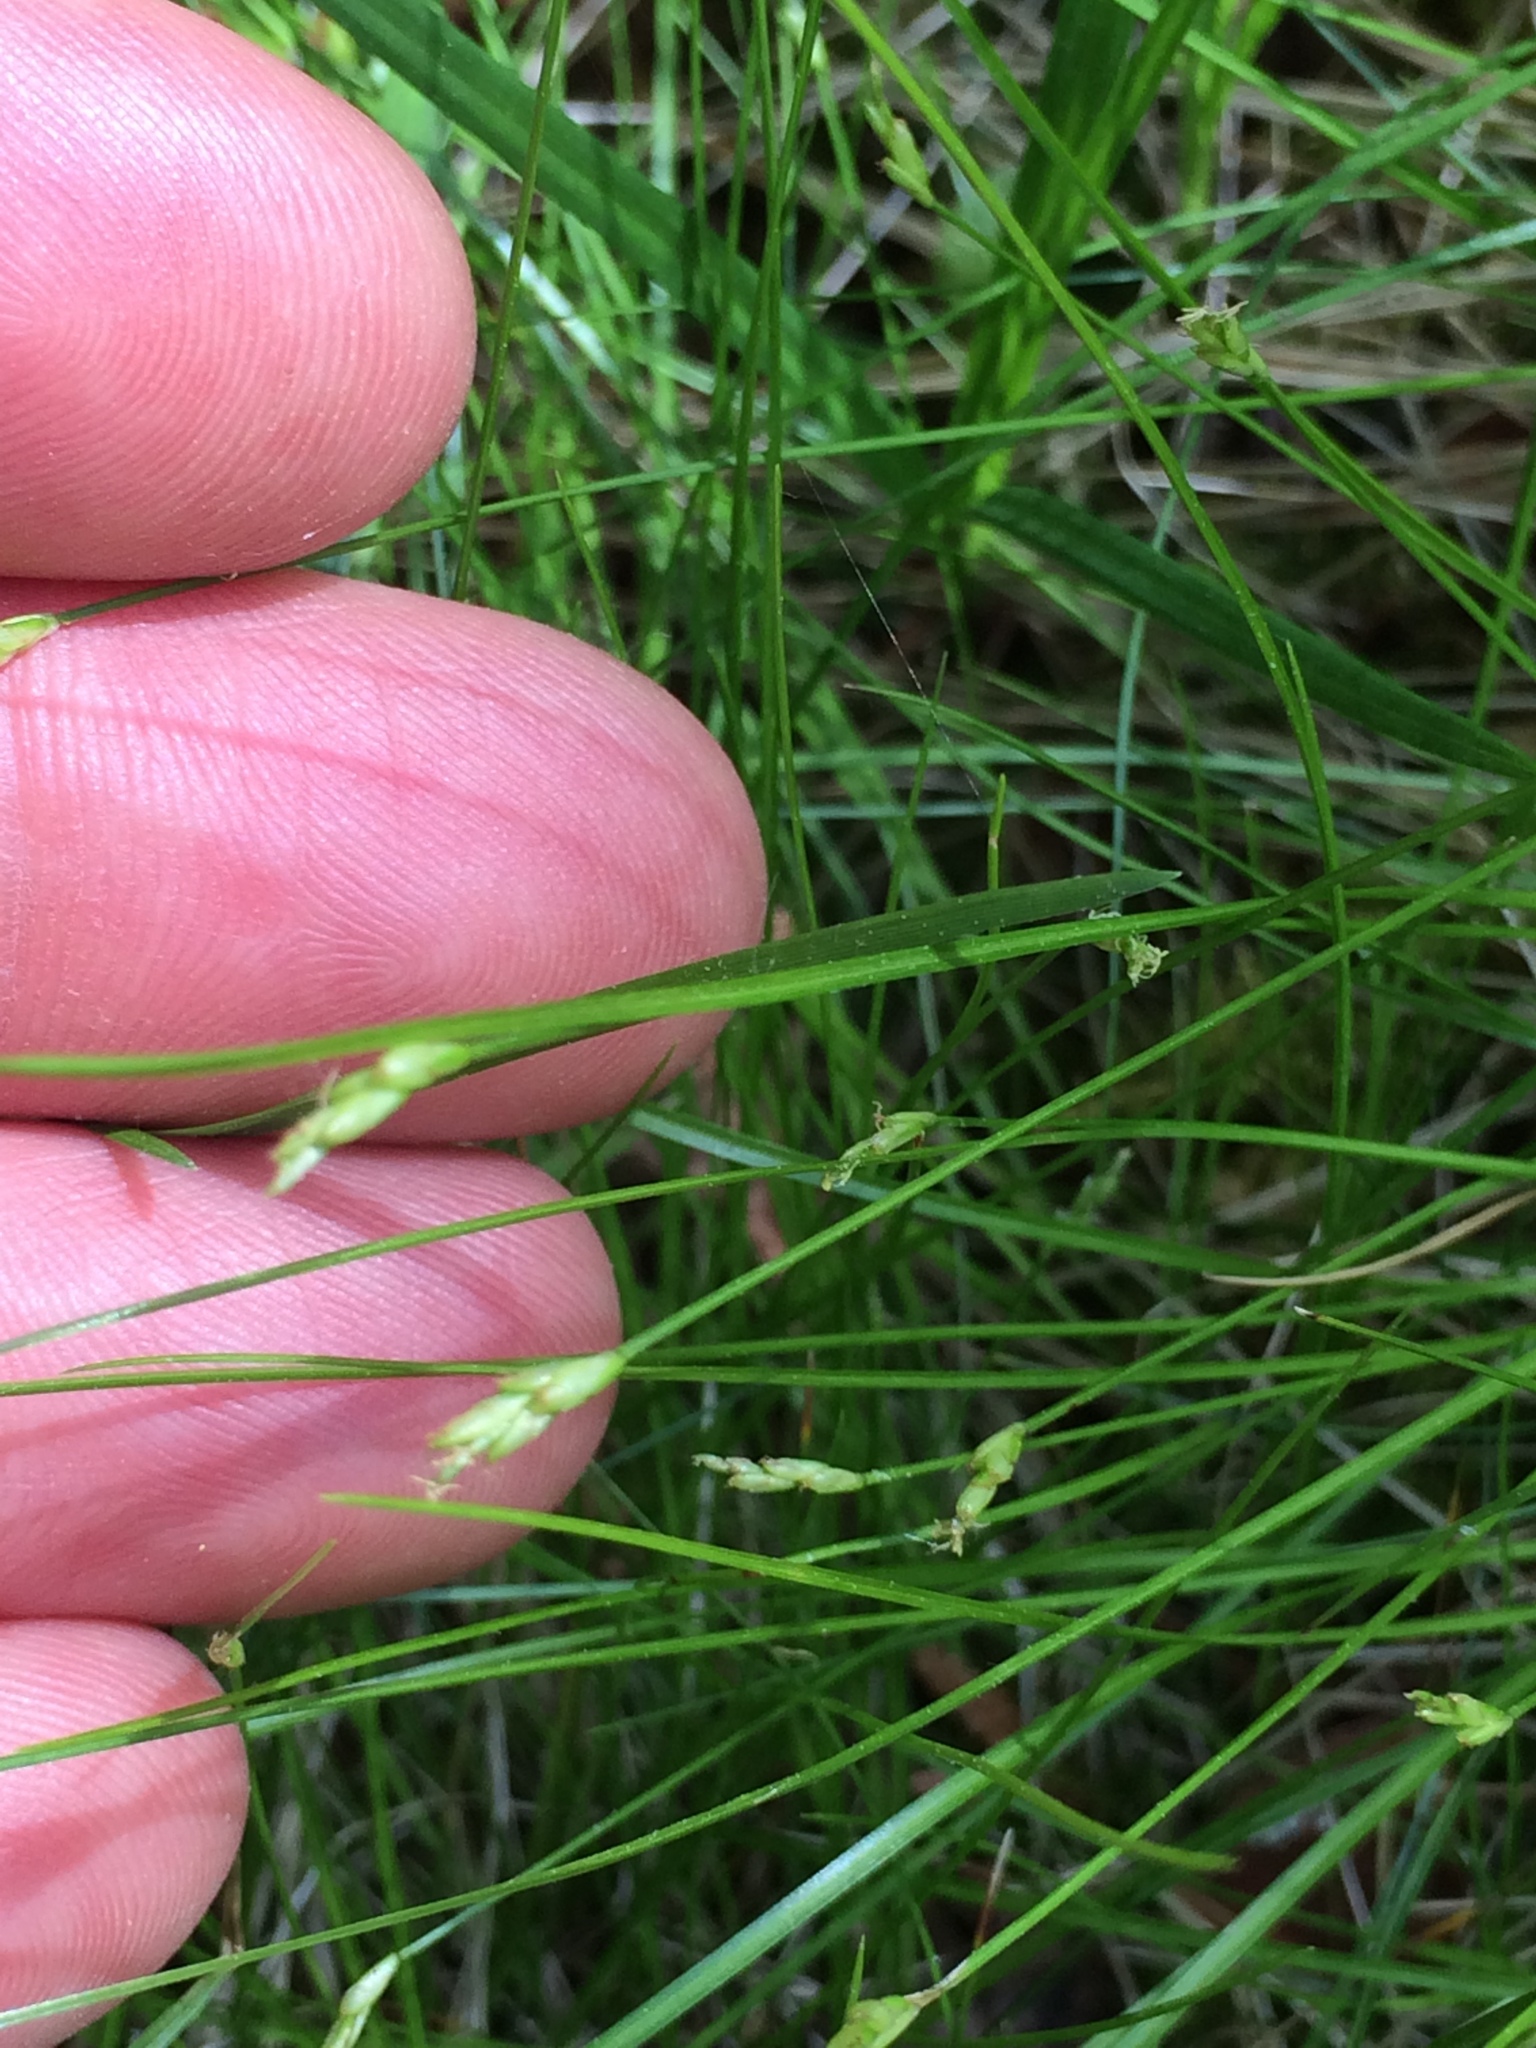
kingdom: Plantae
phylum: Tracheophyta
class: Liliopsida
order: Poales
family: Cyperaceae
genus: Carex
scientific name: Carex leptalea
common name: Bristly-stalked sedge
